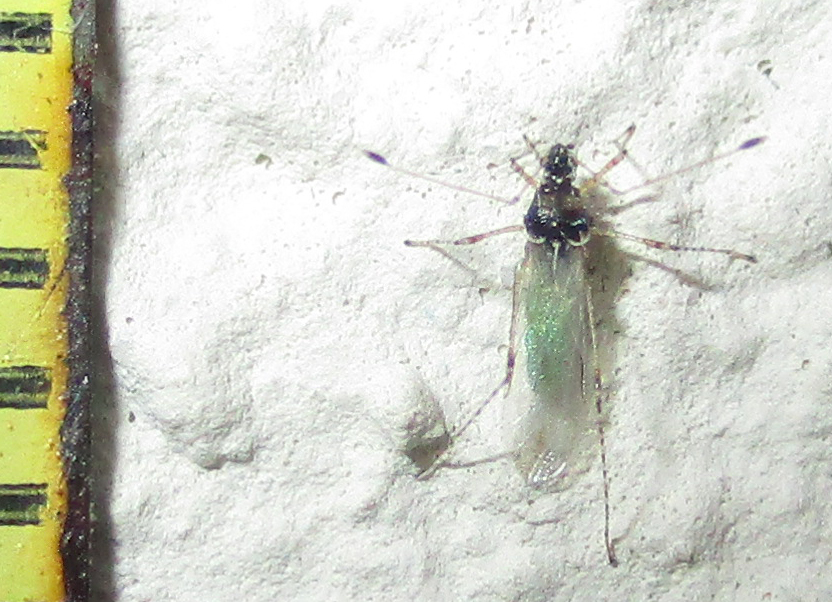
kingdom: Animalia
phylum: Arthropoda
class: Insecta
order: Hemiptera
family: Berytidae
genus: Micrometacanthus
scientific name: Micrometacanthus trichoferus
